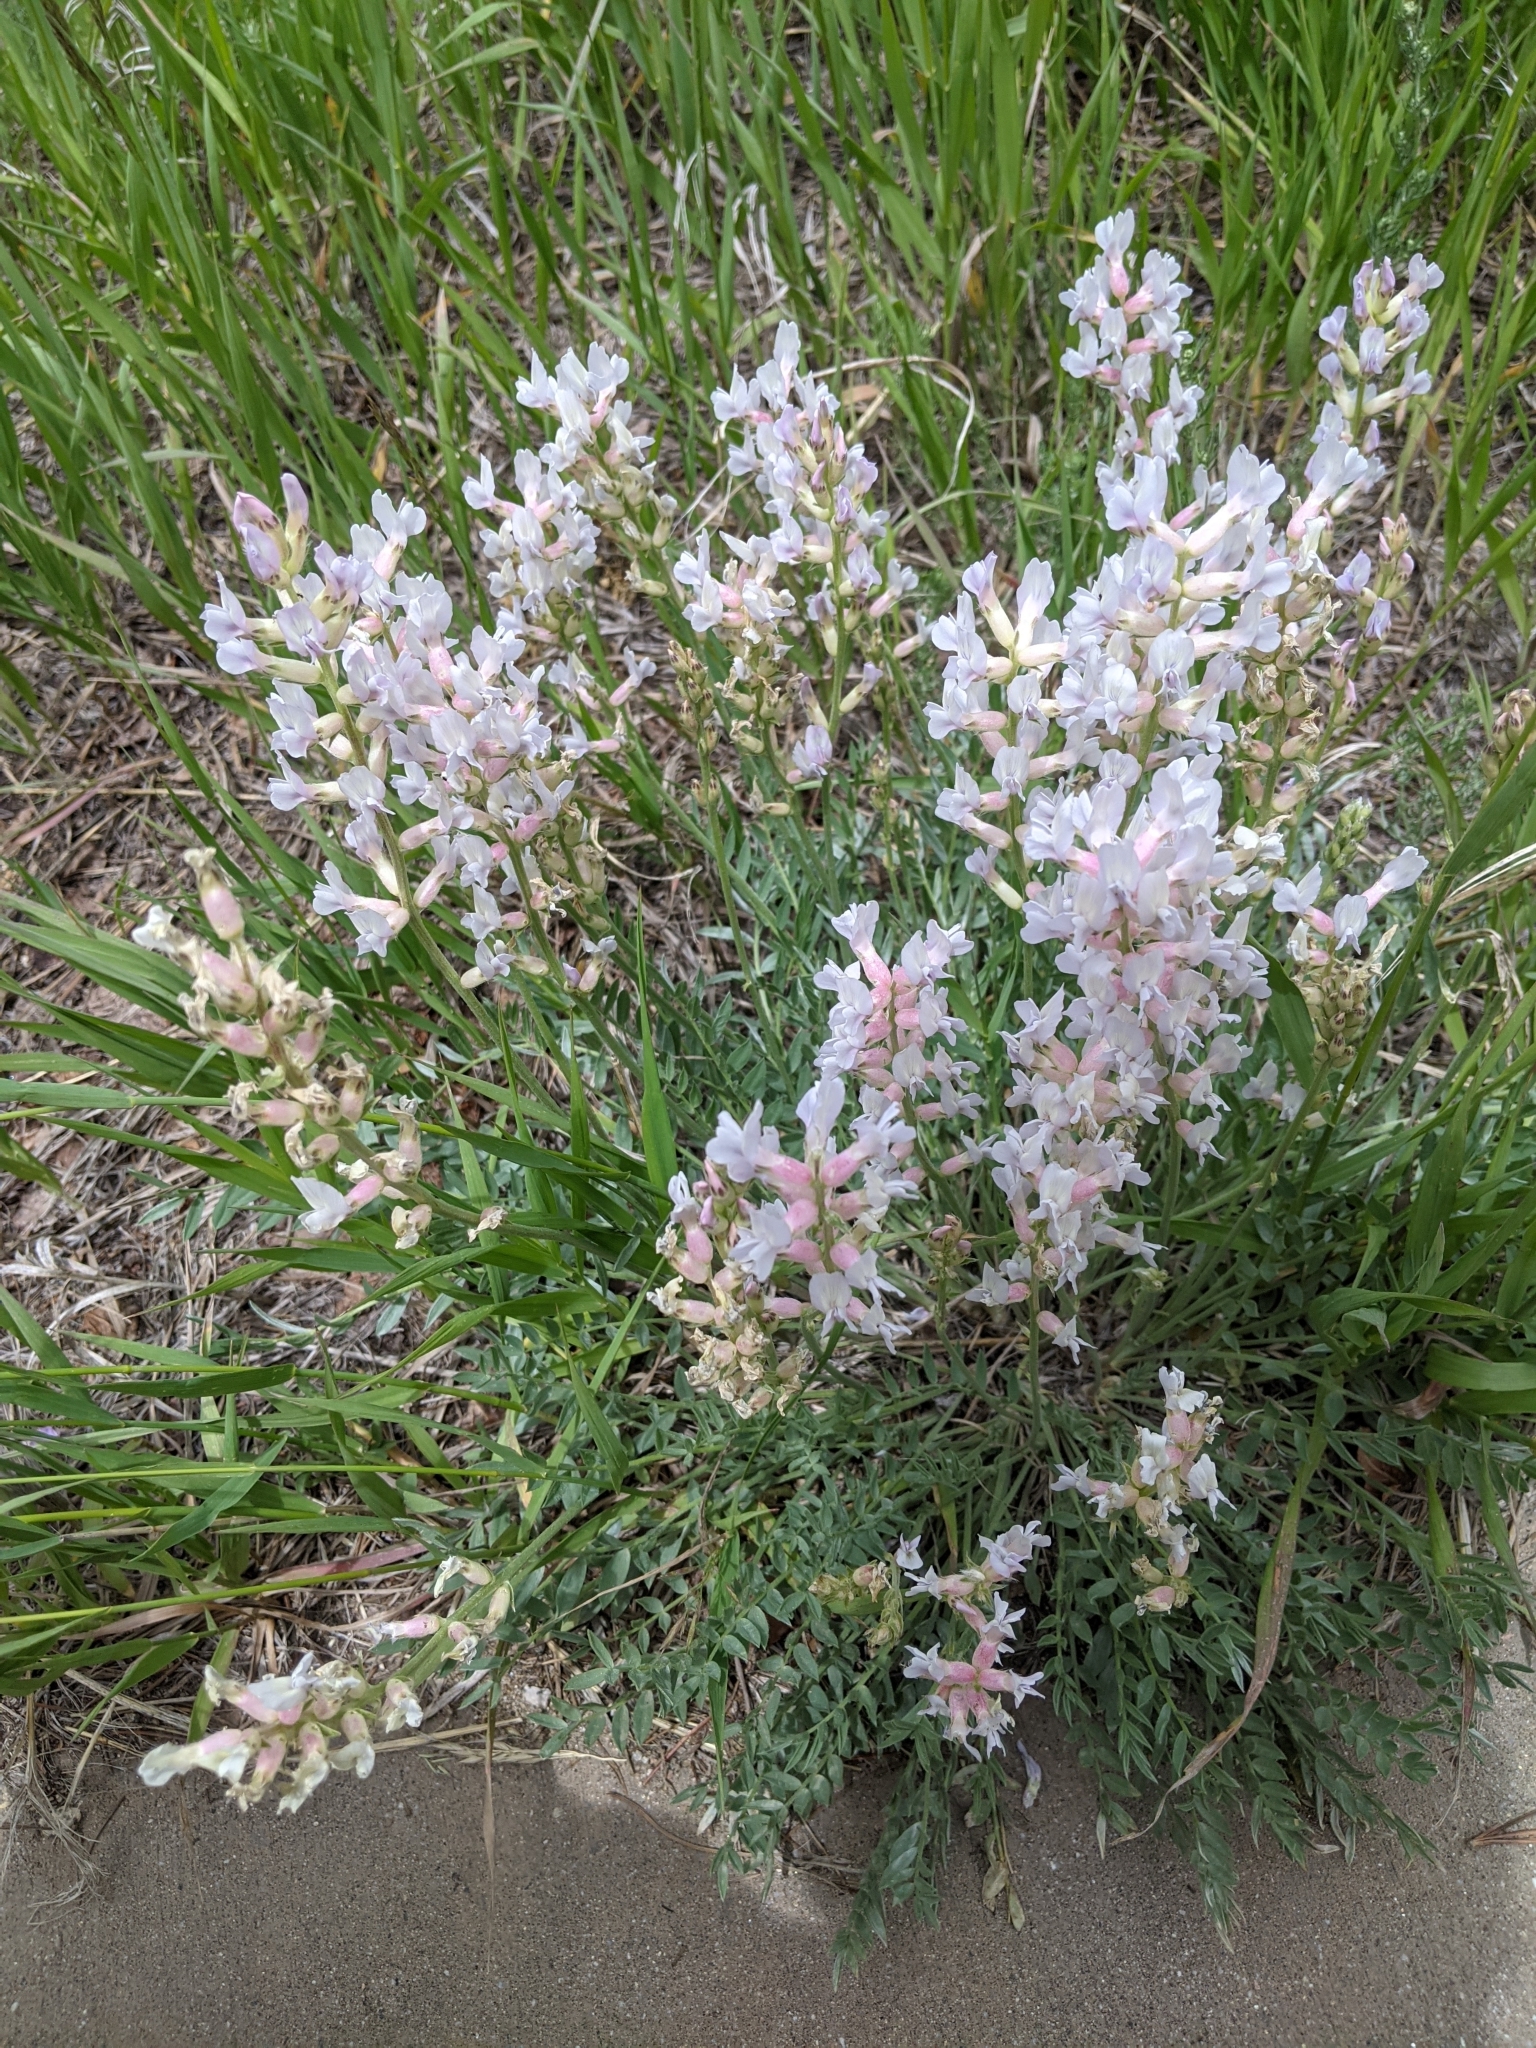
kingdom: Plantae
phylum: Tracheophyta
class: Magnoliopsida
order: Fabales
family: Fabaceae
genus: Oxytropis
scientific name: Oxytropis sericea
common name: Silky locoweed
